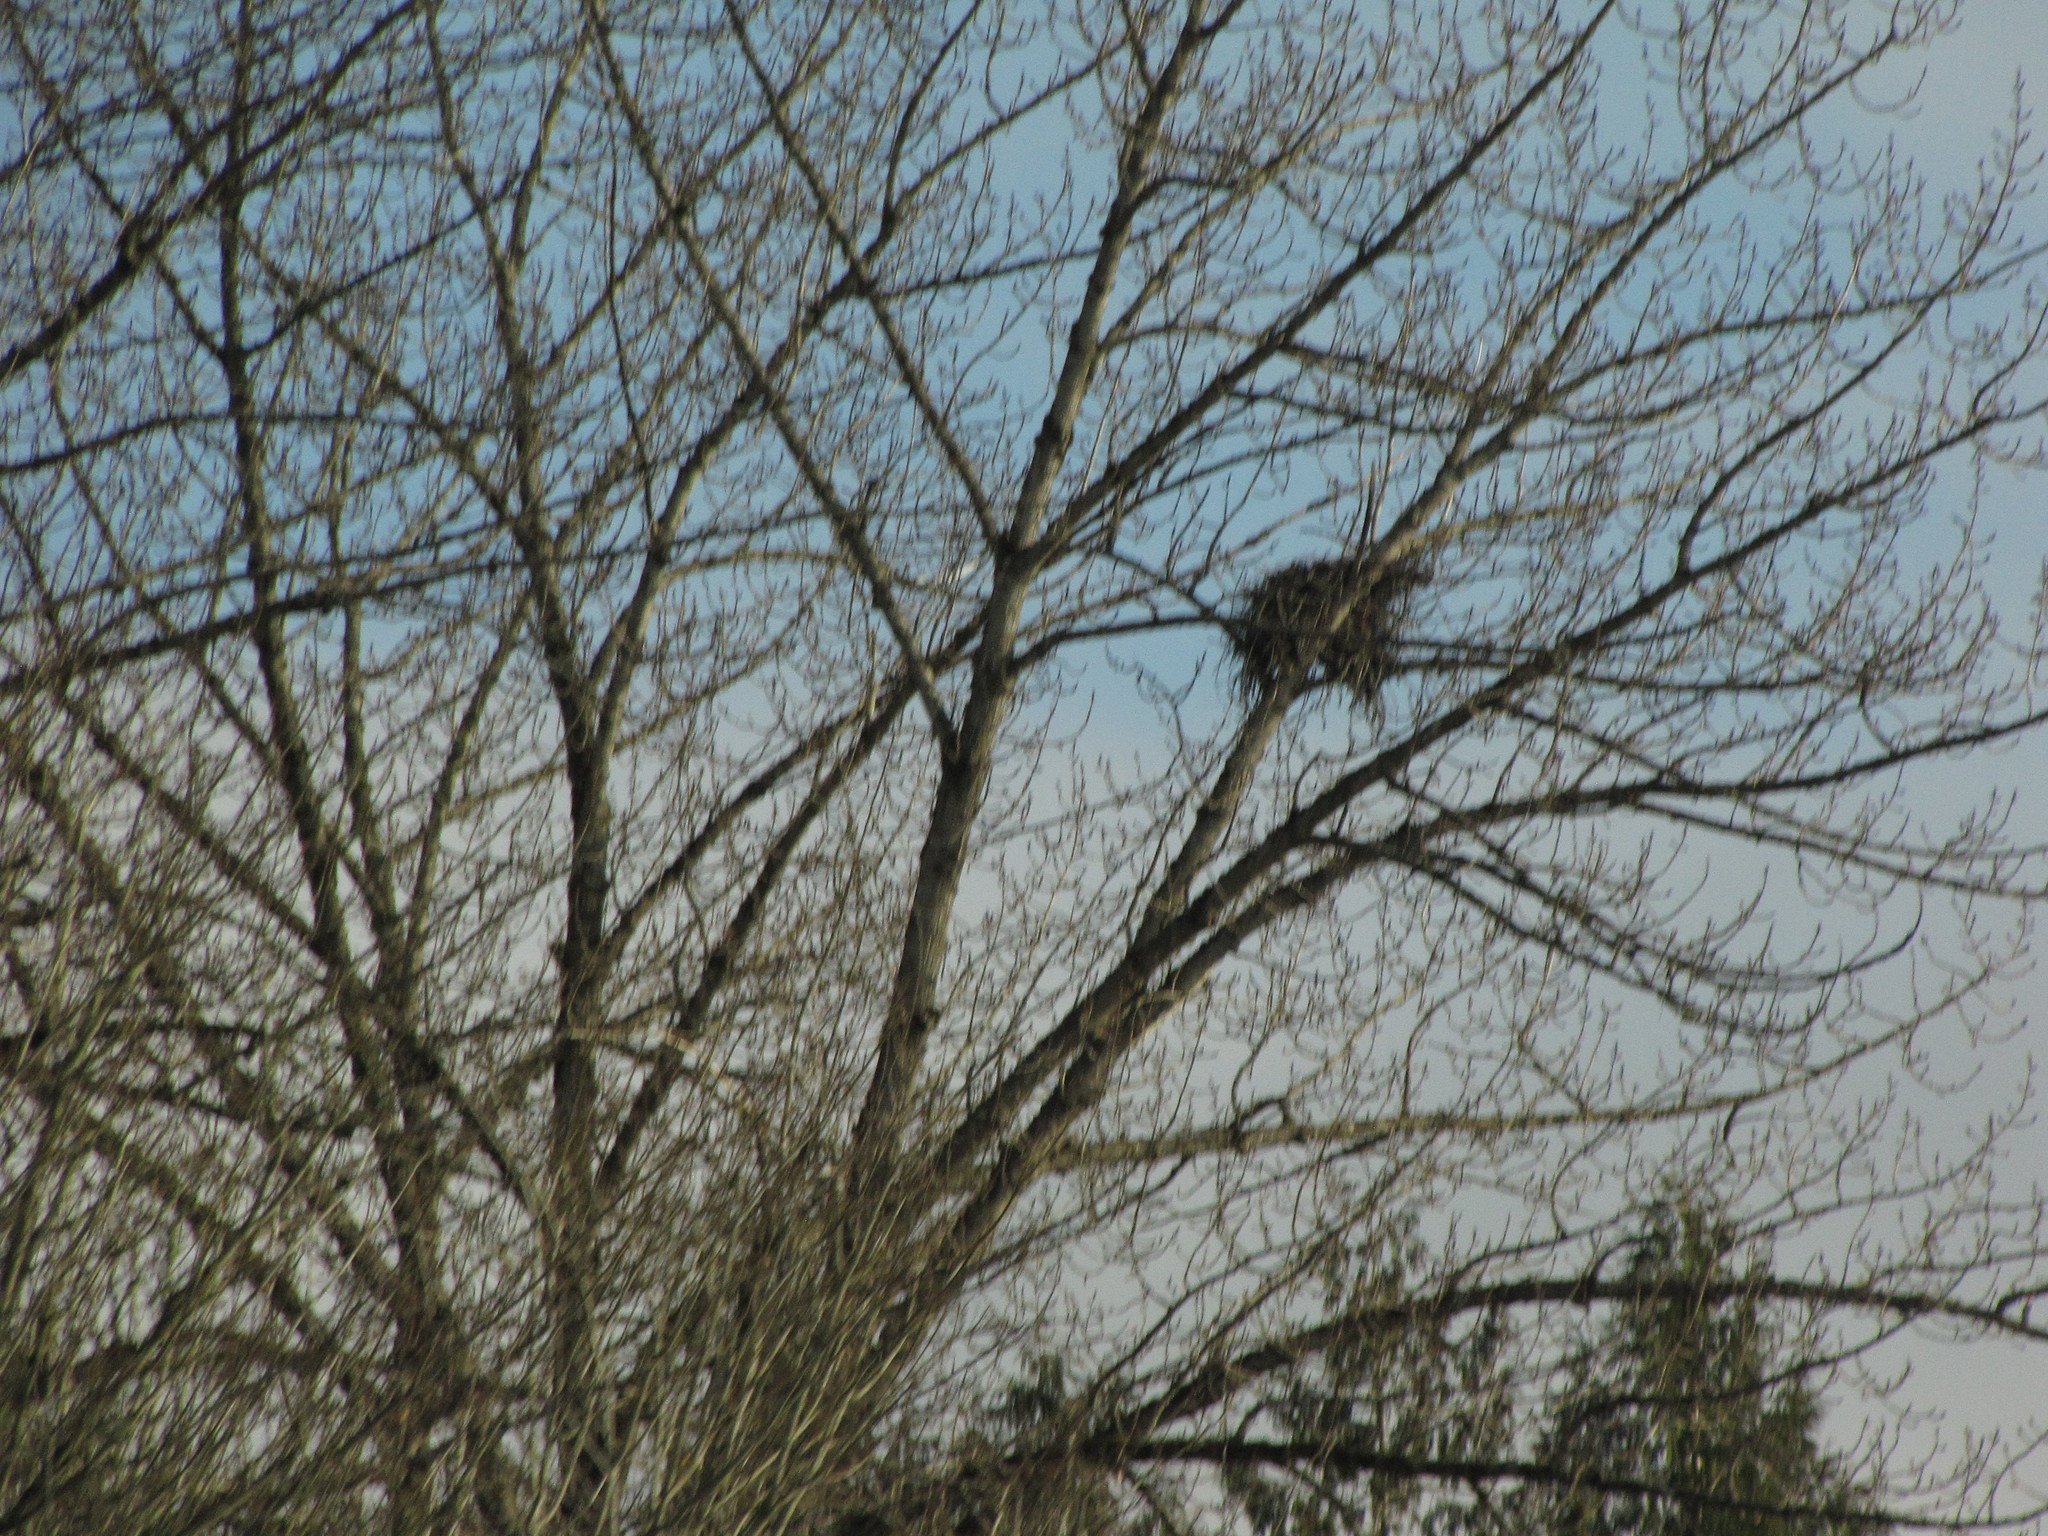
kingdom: Animalia
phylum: Chordata
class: Aves
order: Accipitriformes
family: Accipitridae
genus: Haliaeetus
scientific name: Haliaeetus leucocephalus
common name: Bald eagle
